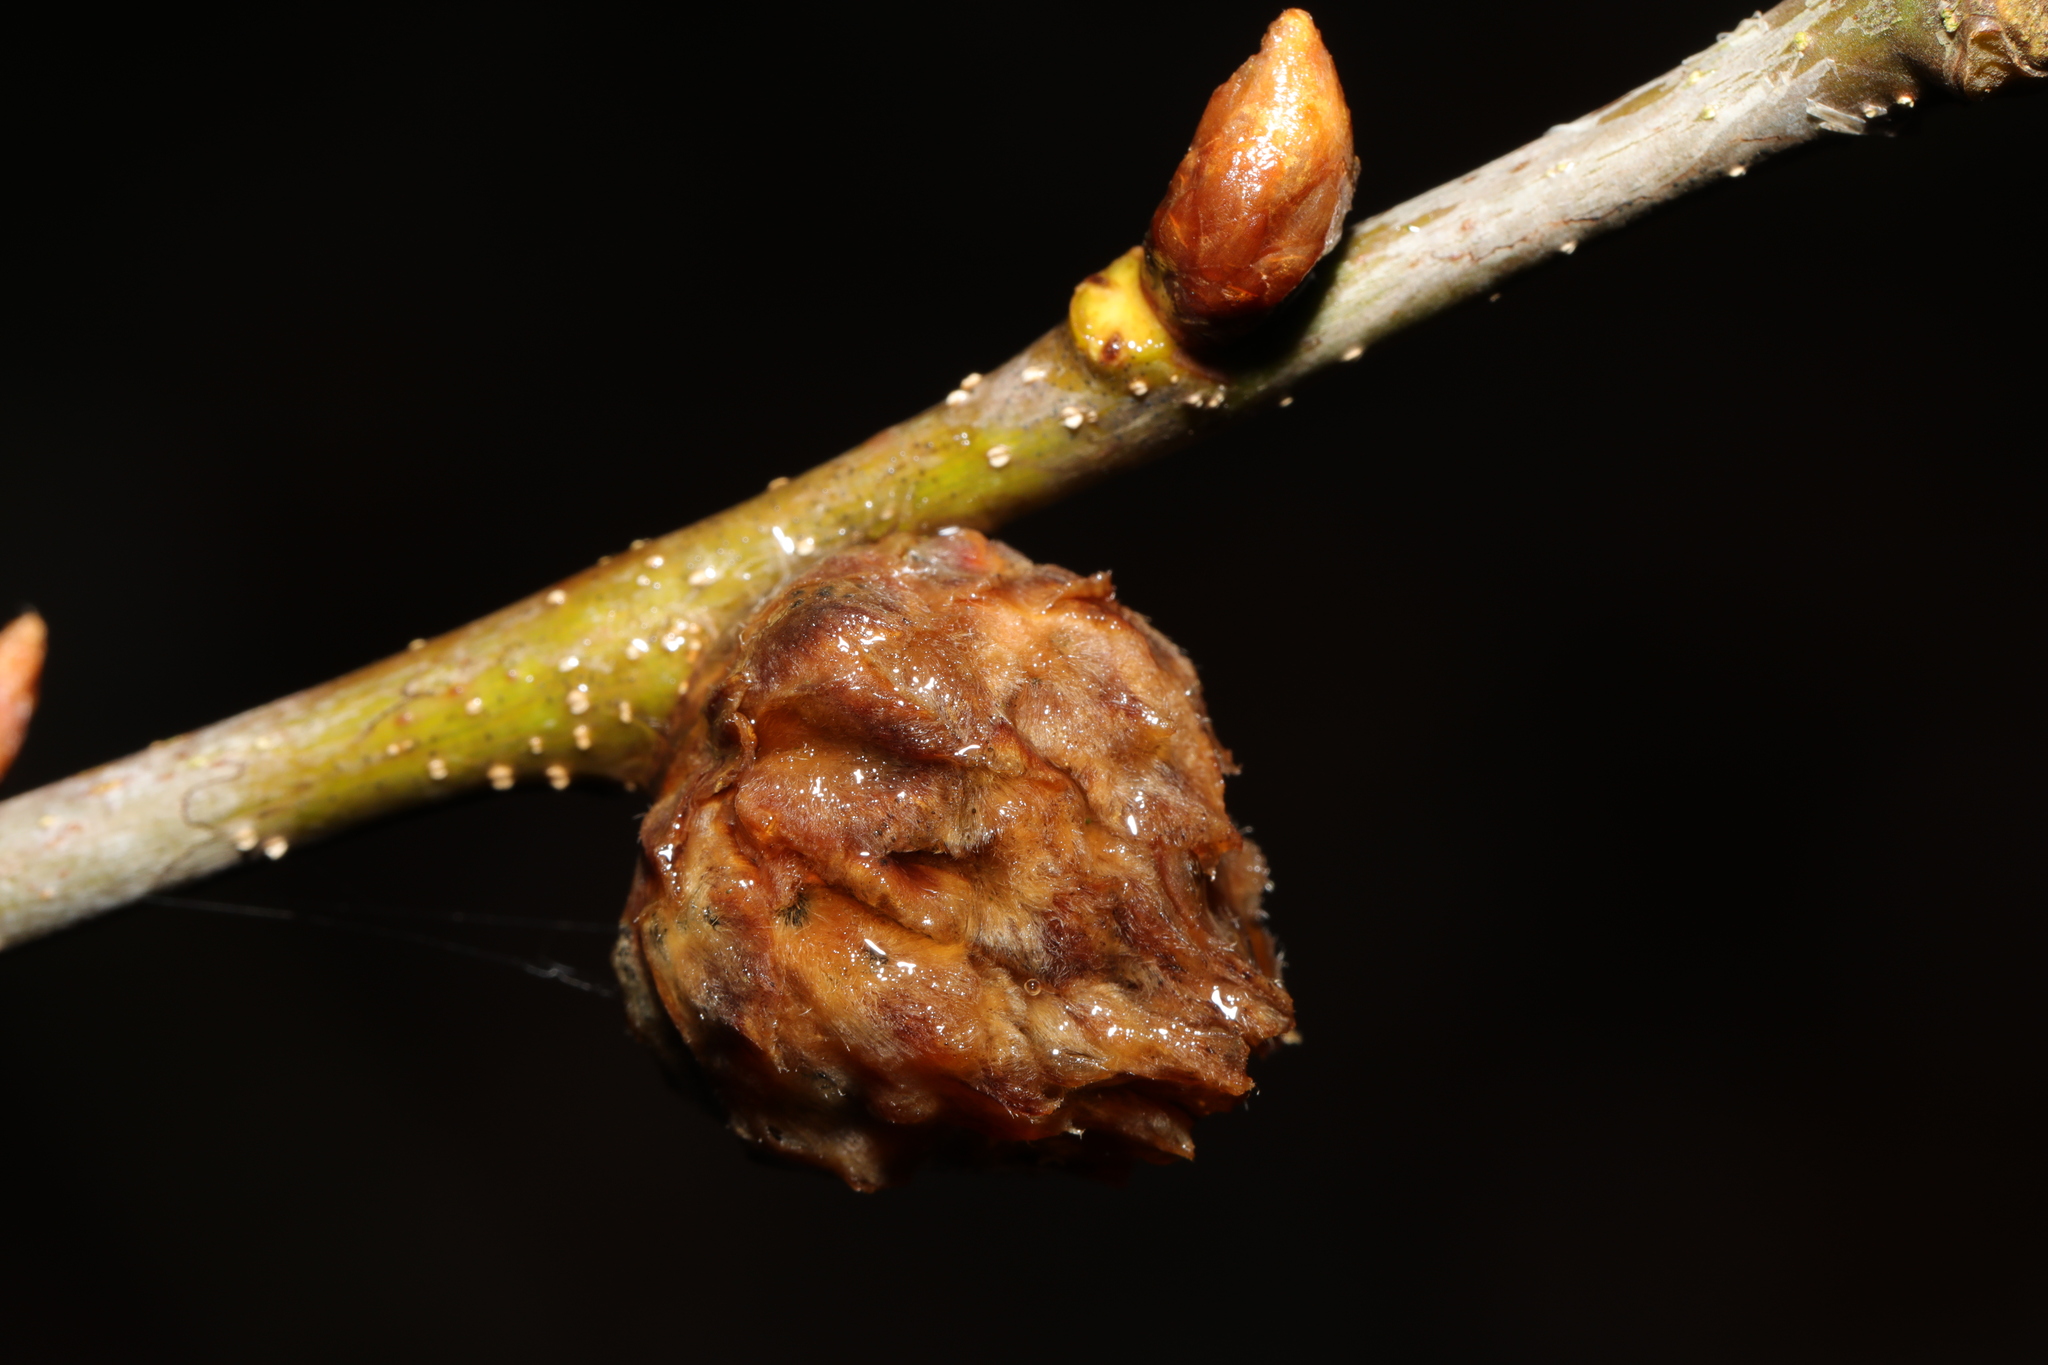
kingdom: Animalia
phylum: Arthropoda
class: Insecta
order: Hymenoptera
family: Cynipidae
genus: Andricus
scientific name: Andricus foecundatrix
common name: Artichoke gall
